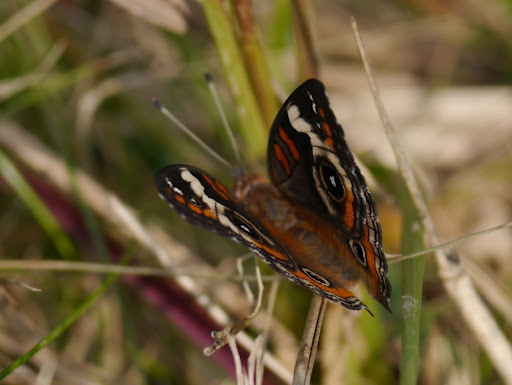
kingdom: Animalia
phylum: Arthropoda
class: Insecta
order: Lepidoptera
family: Nymphalidae
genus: Junonia
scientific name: Junonia coenia
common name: Common buckeye
